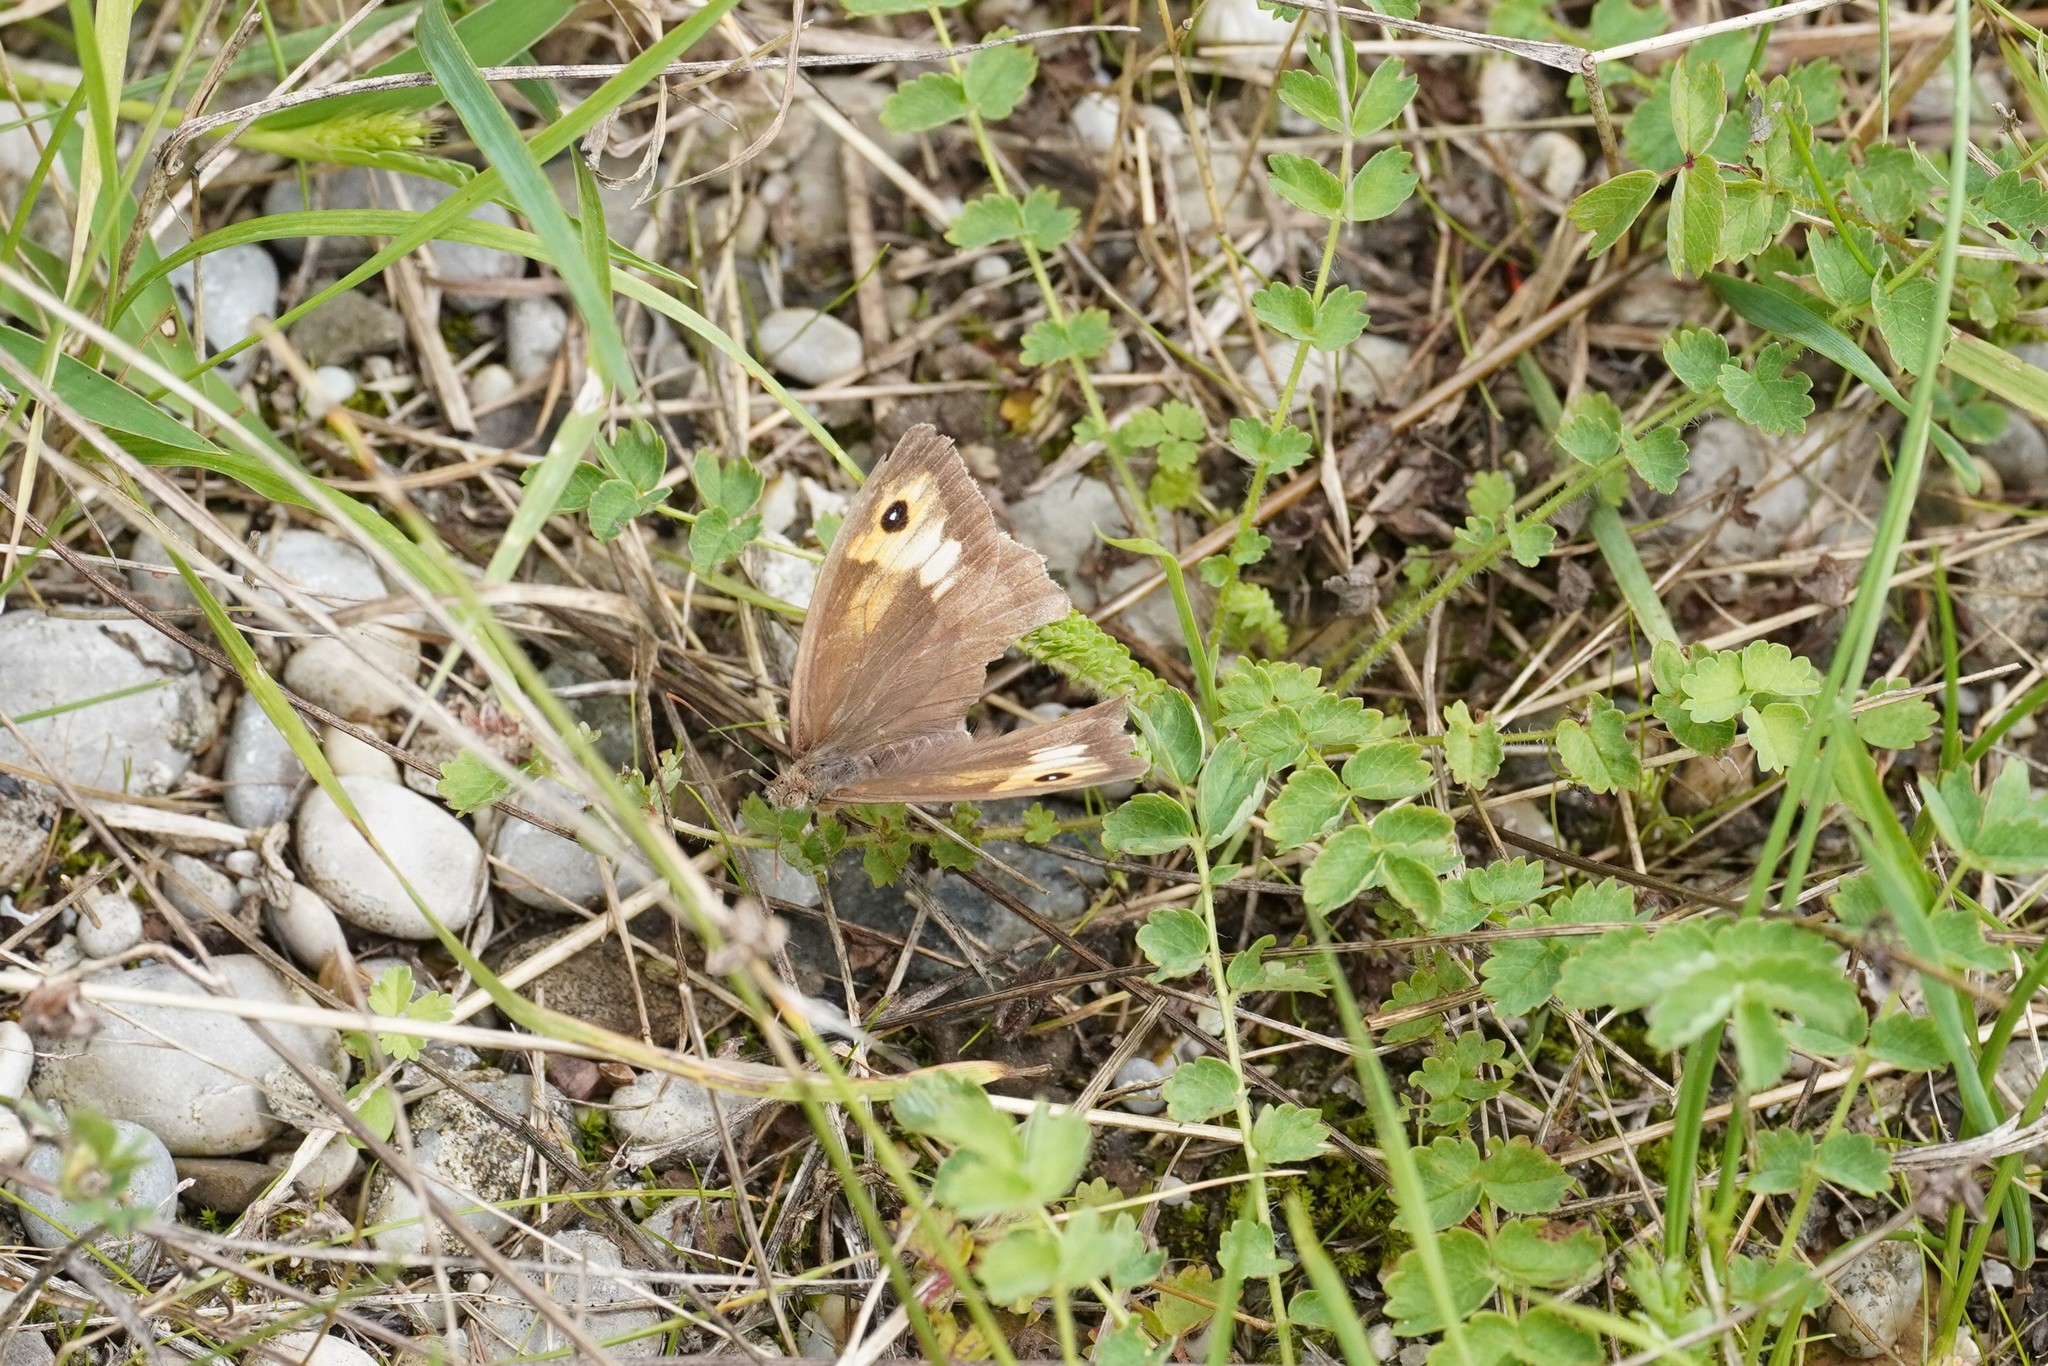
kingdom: Animalia
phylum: Arthropoda
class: Insecta
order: Lepidoptera
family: Nymphalidae
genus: Maniola
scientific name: Maniola jurtina
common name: Meadow brown
